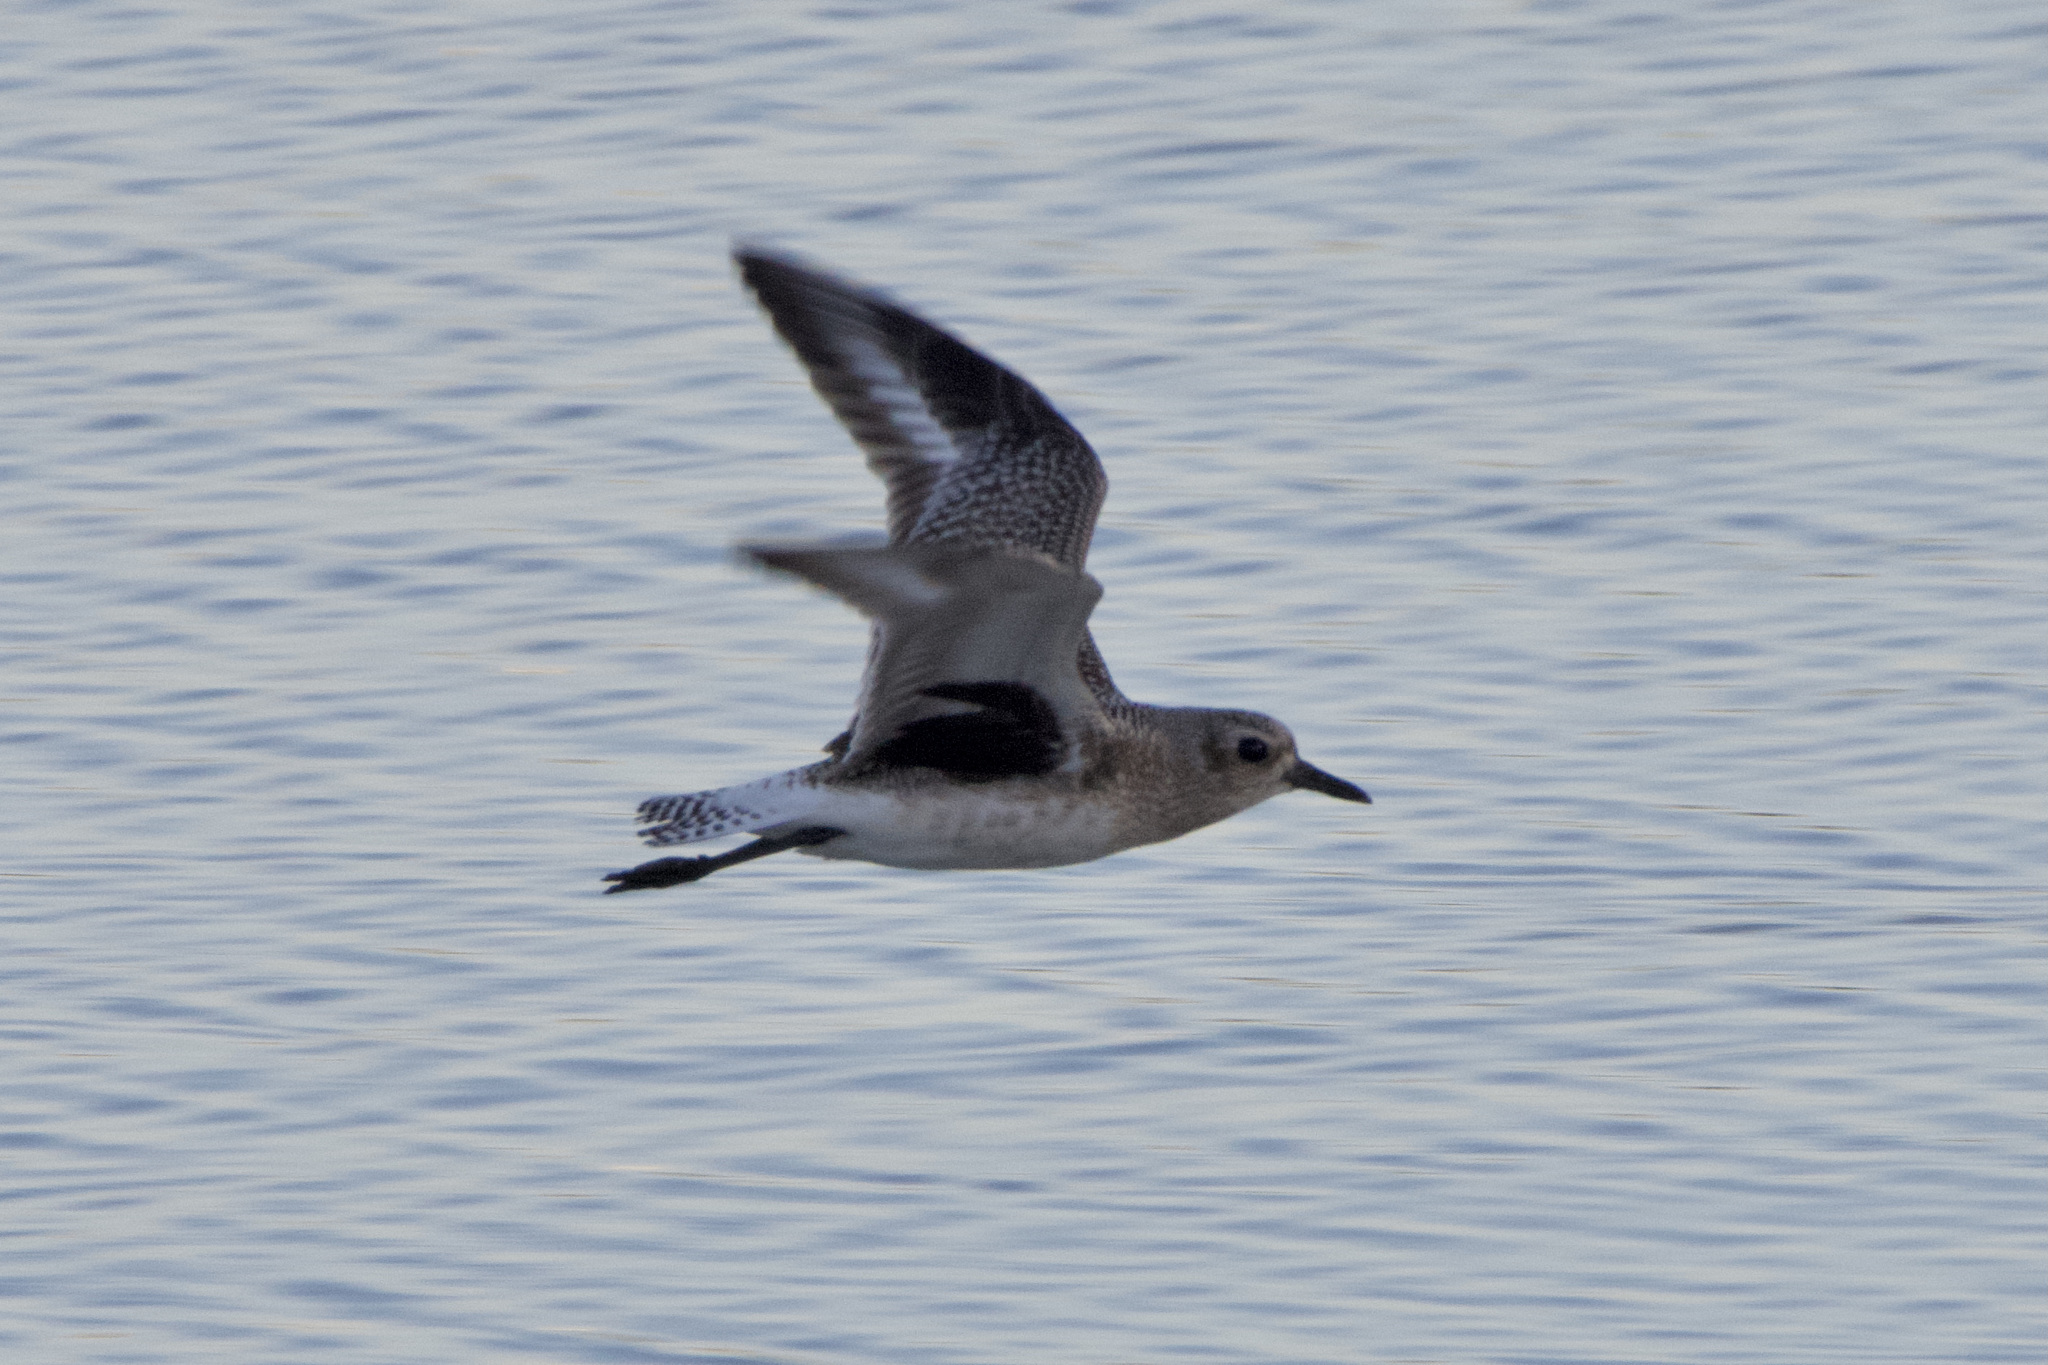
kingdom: Animalia
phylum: Chordata
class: Aves
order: Charadriiformes
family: Charadriidae
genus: Pluvialis
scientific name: Pluvialis squatarola
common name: Grey plover
